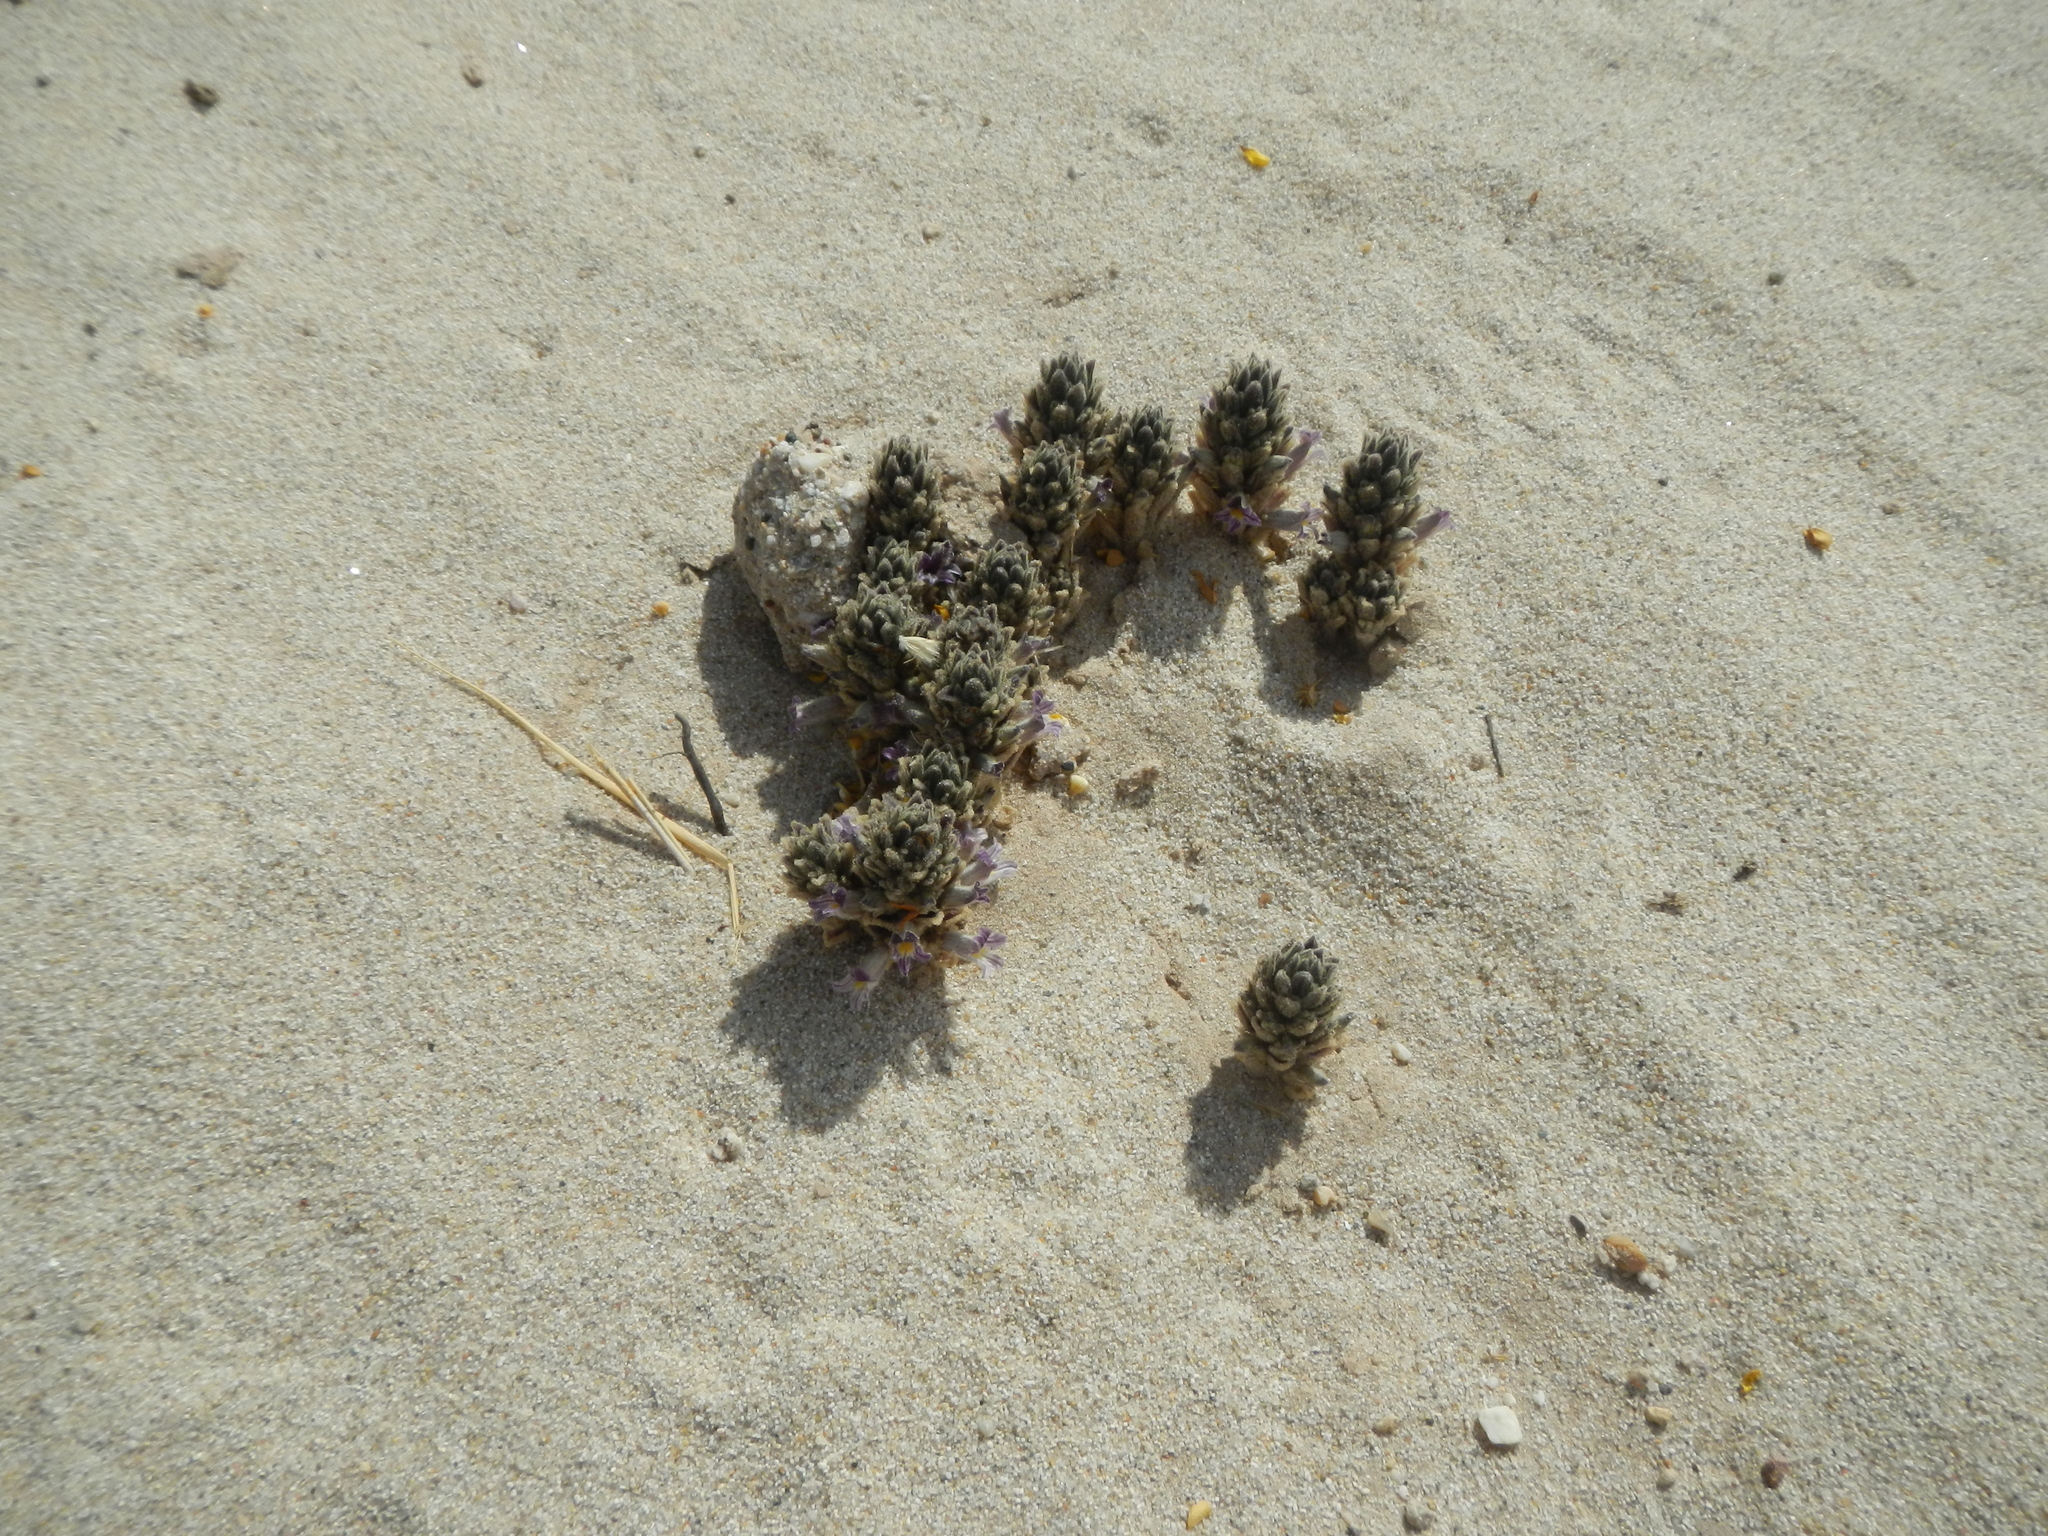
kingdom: Plantae
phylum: Tracheophyta
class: Magnoliopsida
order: Lamiales
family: Orobanchaceae
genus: Aphyllon
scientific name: Aphyllon cooperi
